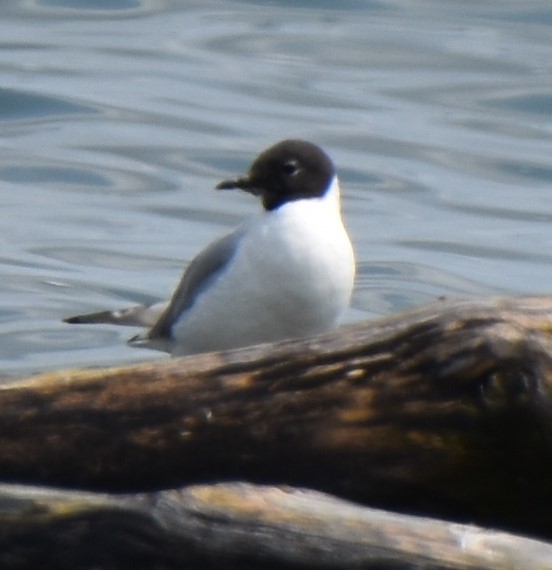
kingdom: Animalia
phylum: Chordata
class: Aves
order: Charadriiformes
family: Laridae
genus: Hydrocoloeus
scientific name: Hydrocoloeus minutus
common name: Little gull
